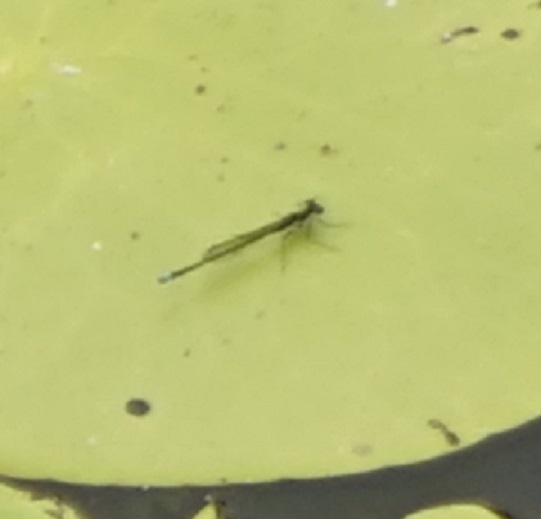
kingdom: Animalia
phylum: Arthropoda
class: Insecta
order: Odonata
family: Coenagrionidae
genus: Austrocnemis
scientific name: Austrocnemis splendida
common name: Splendid longlegs
